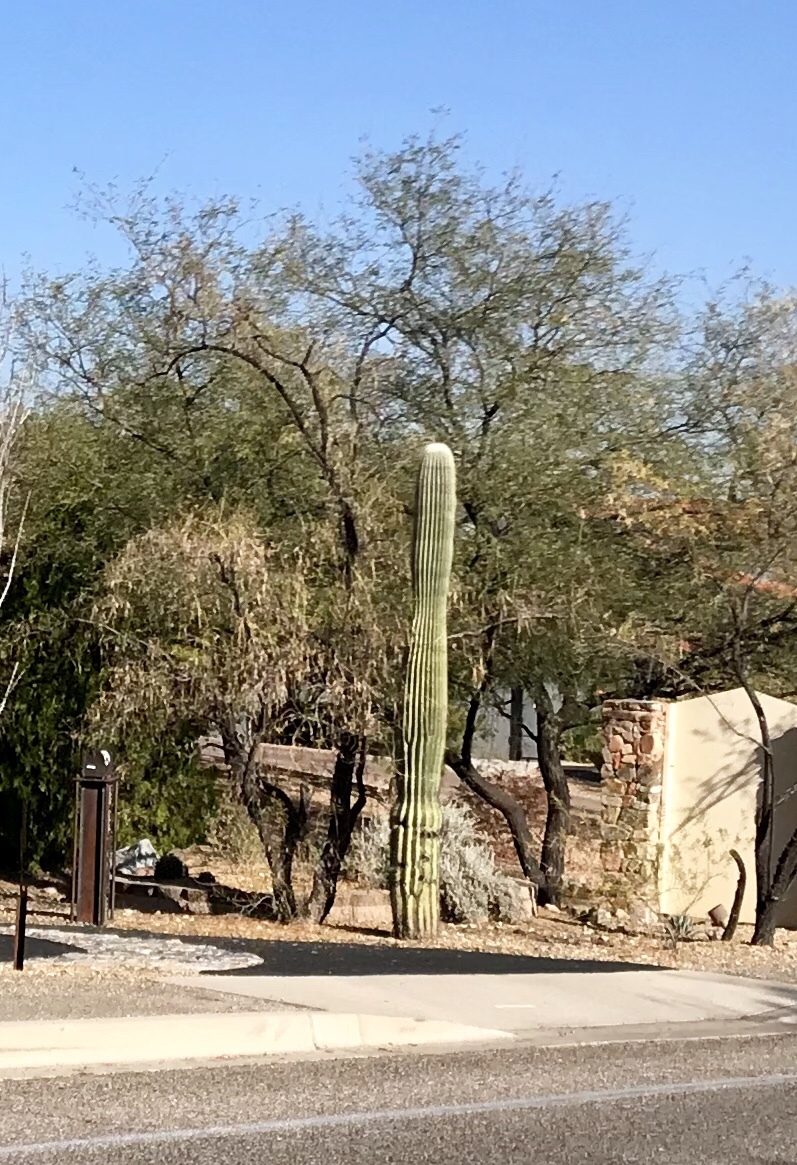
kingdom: Plantae
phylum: Tracheophyta
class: Magnoliopsida
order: Caryophyllales
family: Cactaceae
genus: Carnegiea
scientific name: Carnegiea gigantea
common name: Saguaro
